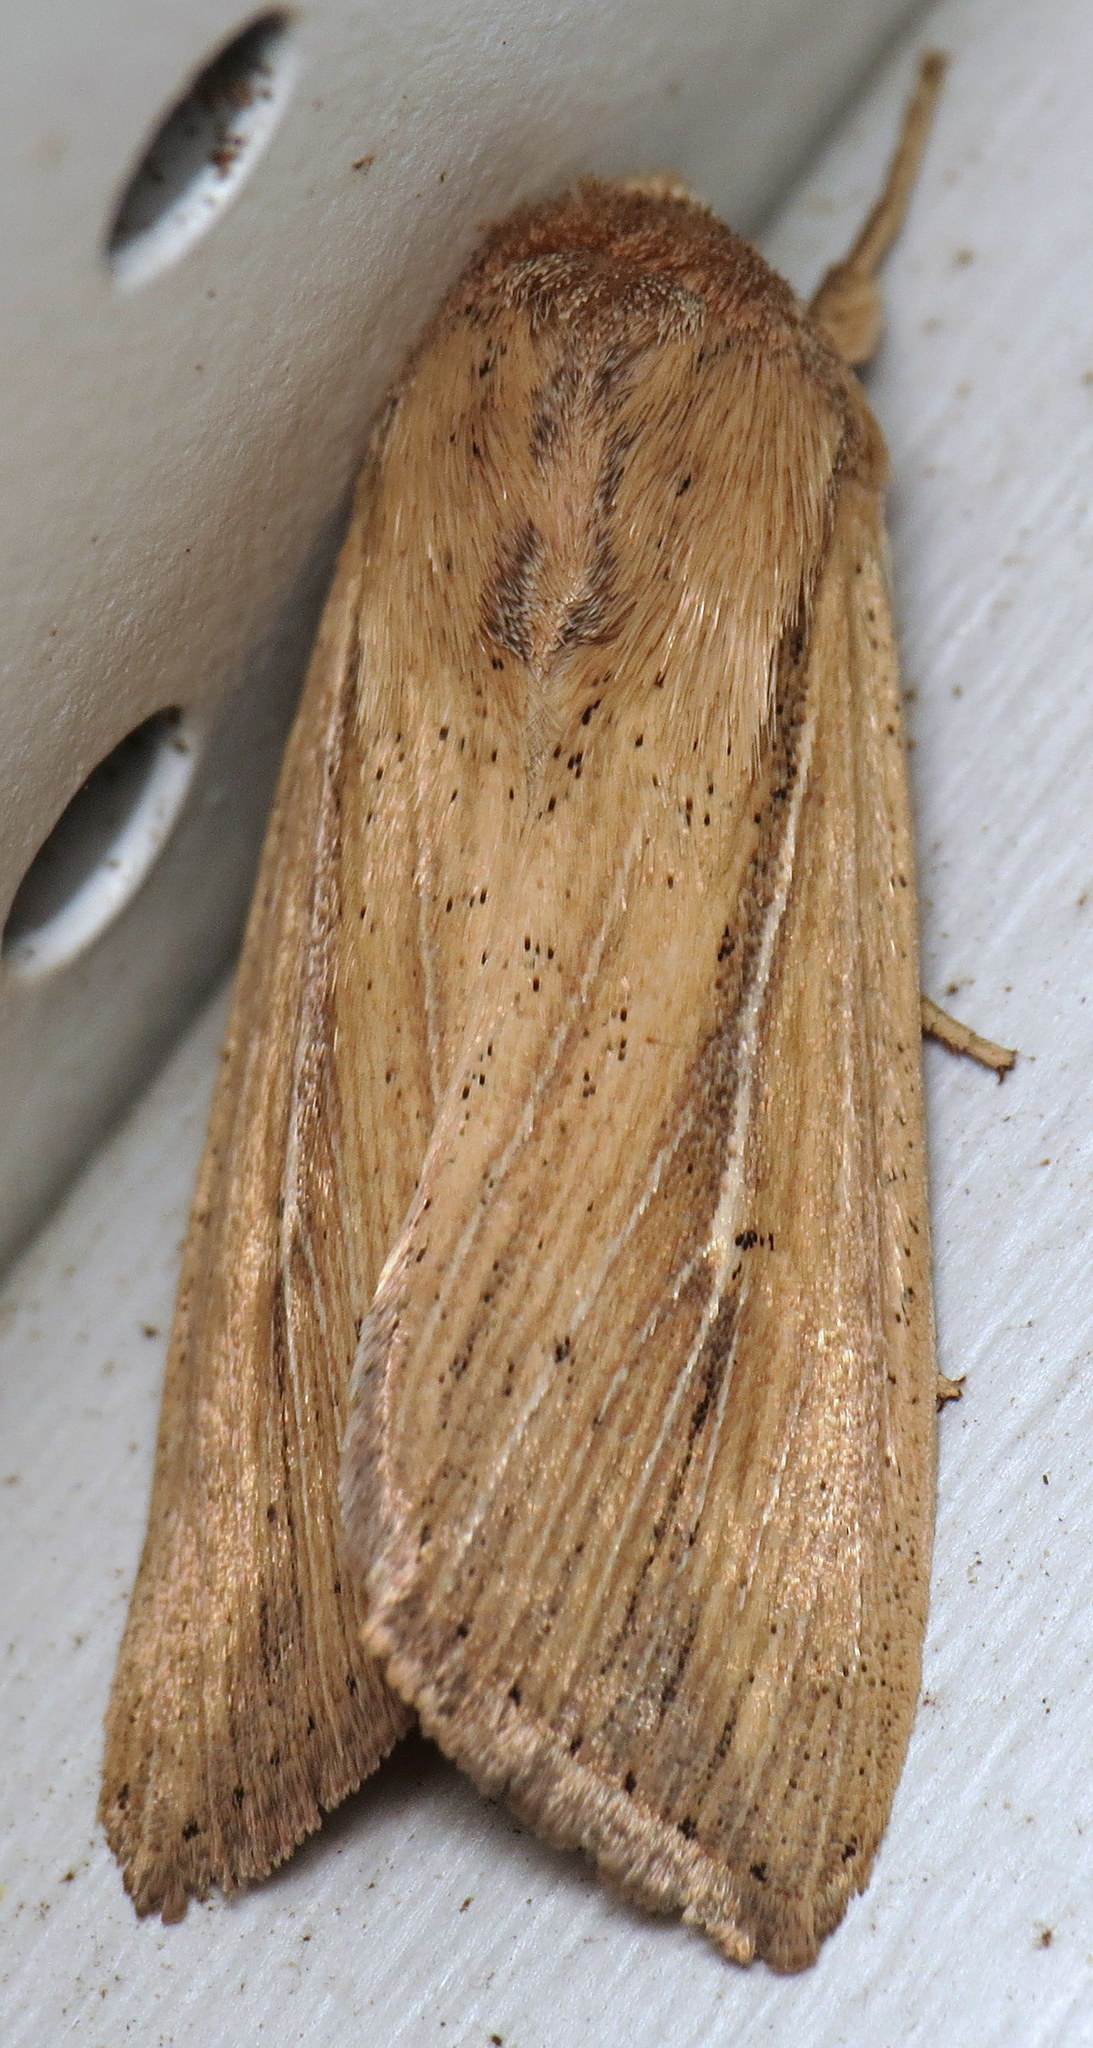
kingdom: Animalia
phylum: Arthropoda
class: Insecta
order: Lepidoptera
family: Noctuidae
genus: Leucania
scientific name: Leucania phragmitidicola
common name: Phragmites wainscot
